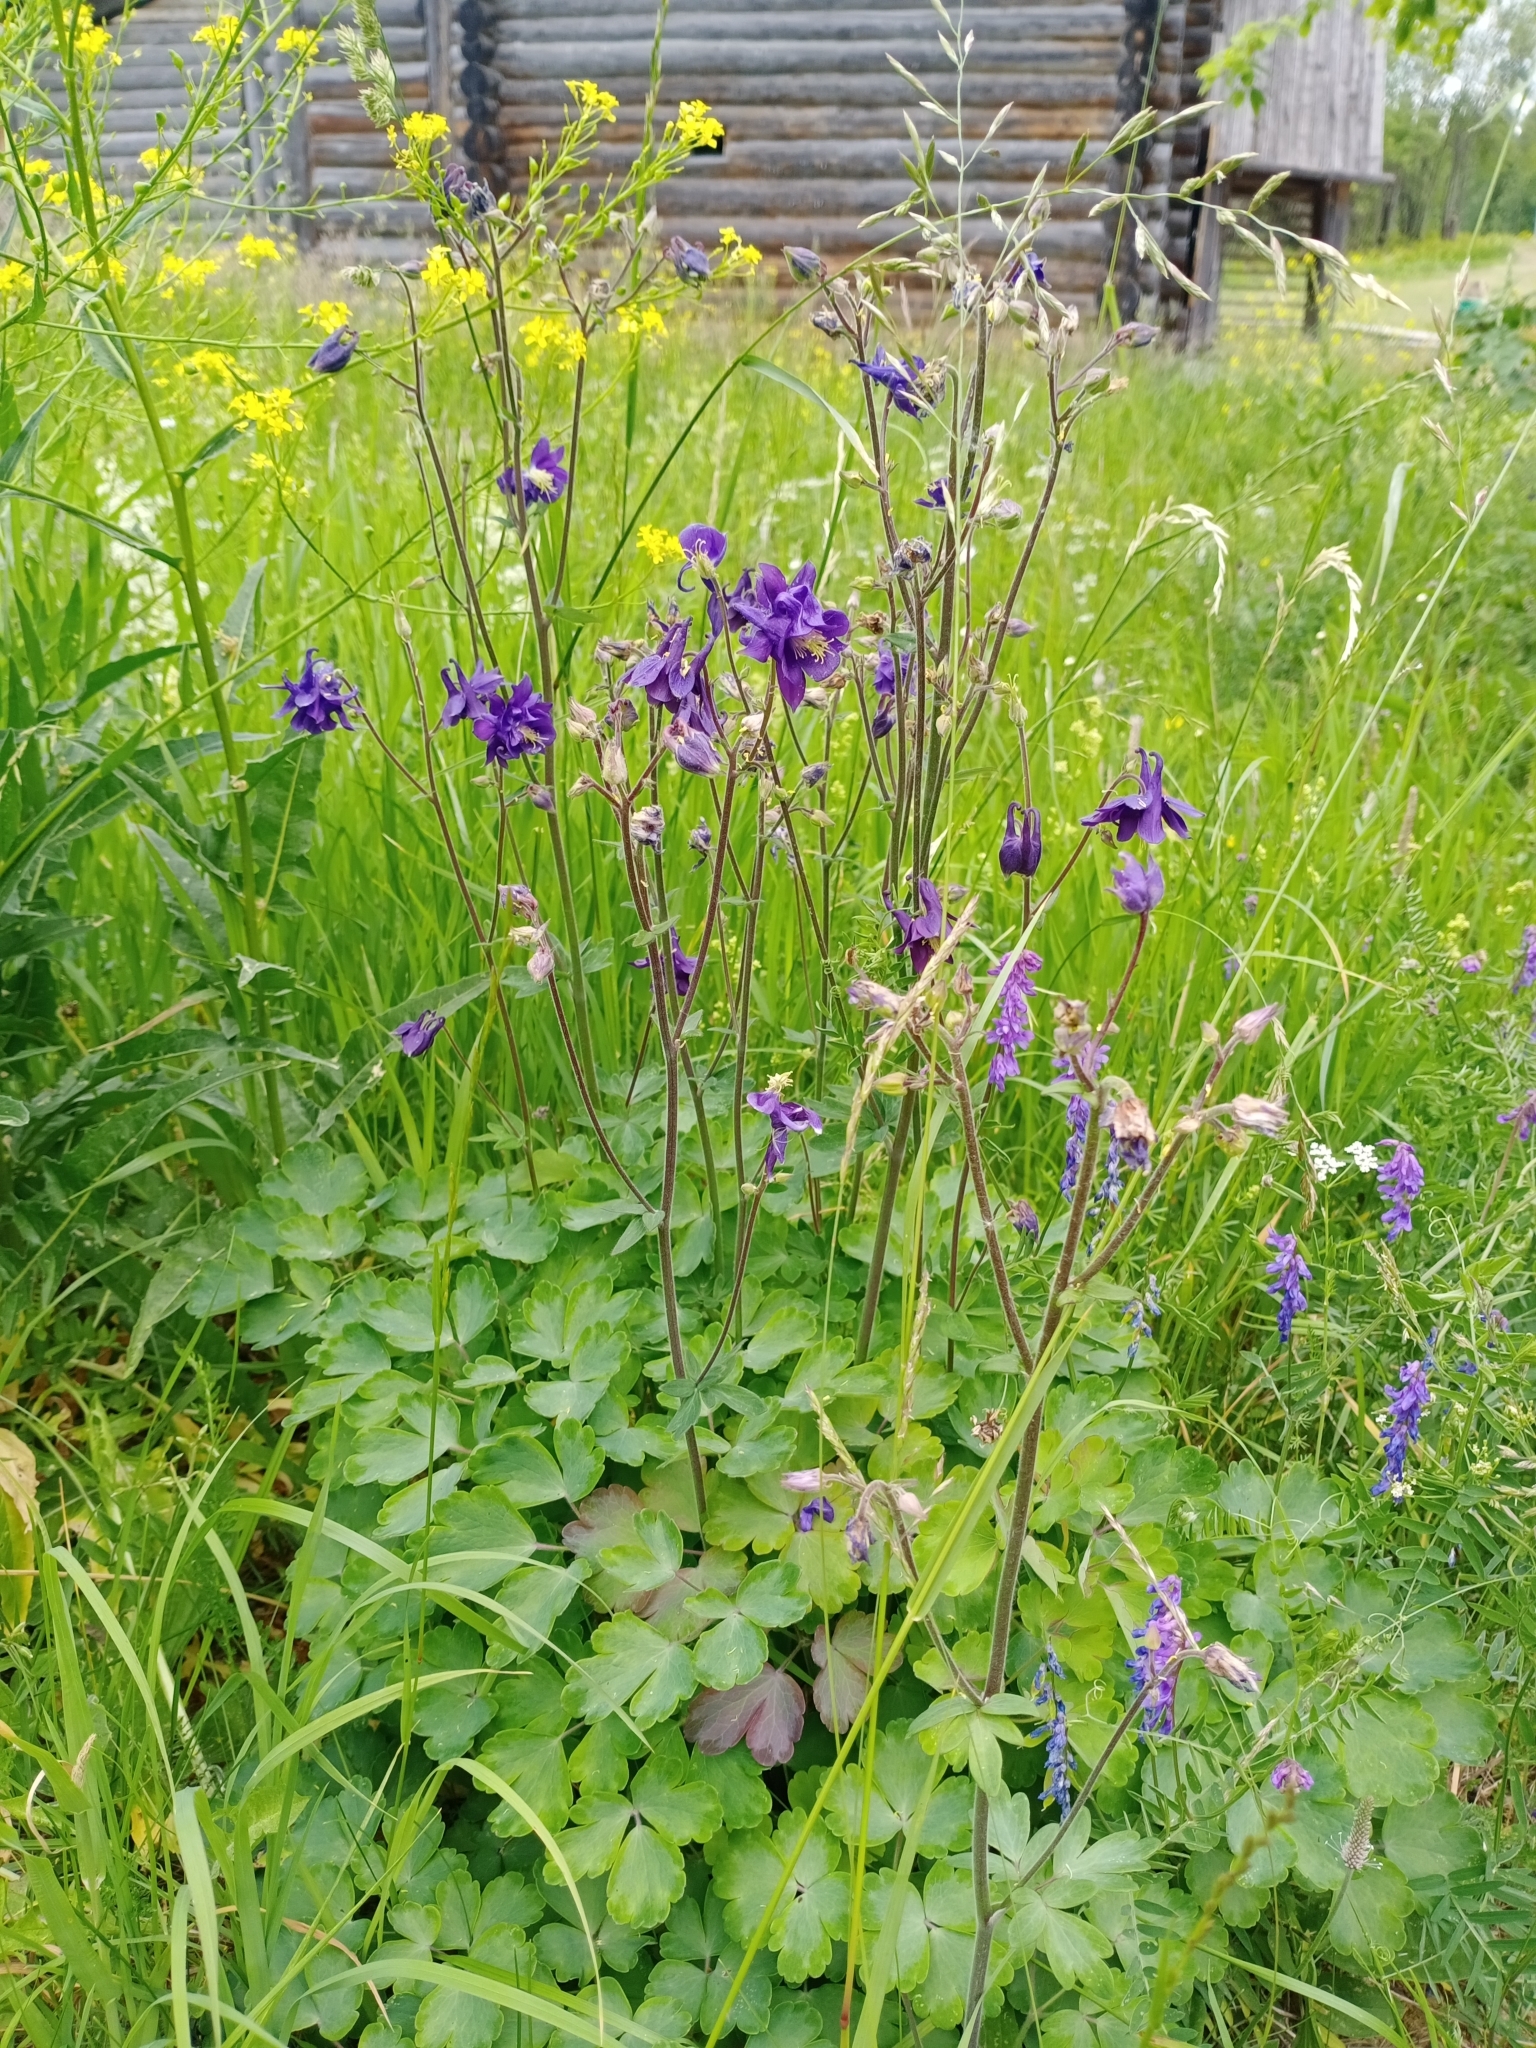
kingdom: Plantae
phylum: Tracheophyta
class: Magnoliopsida
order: Ranunculales
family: Ranunculaceae
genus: Aquilegia
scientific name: Aquilegia vulgaris
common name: Columbine
